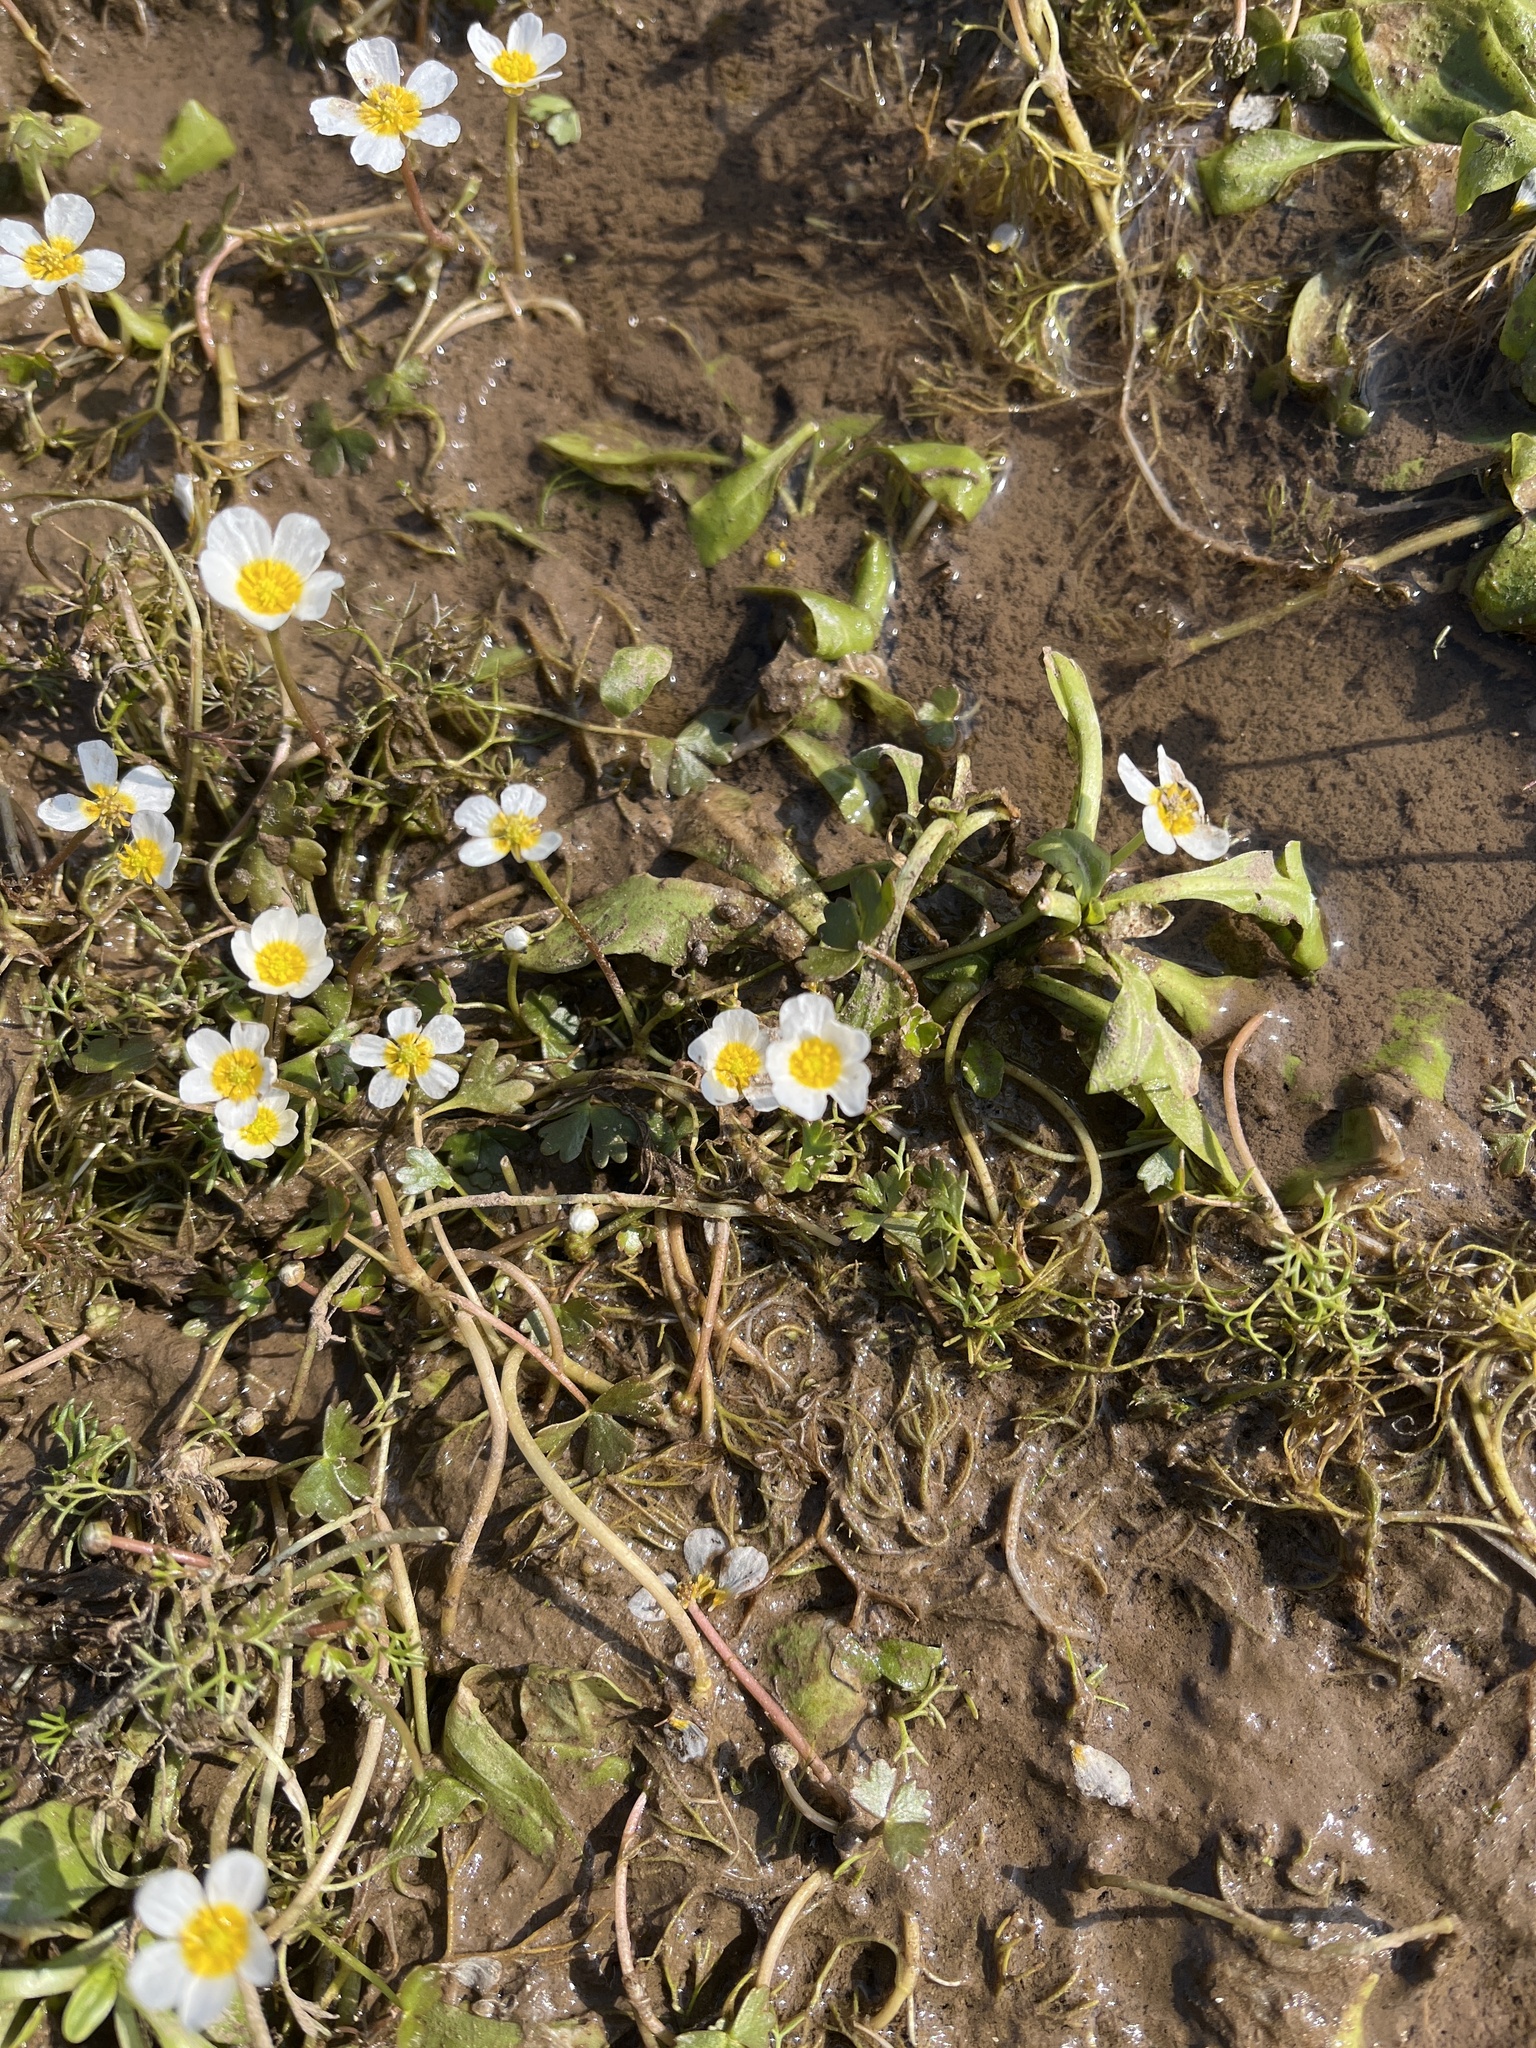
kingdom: Plantae
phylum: Tracheophyta
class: Magnoliopsida
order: Ranunculales
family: Ranunculaceae
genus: Ranunculus
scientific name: Ranunculus aquatilis
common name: Common water-crowfoot
